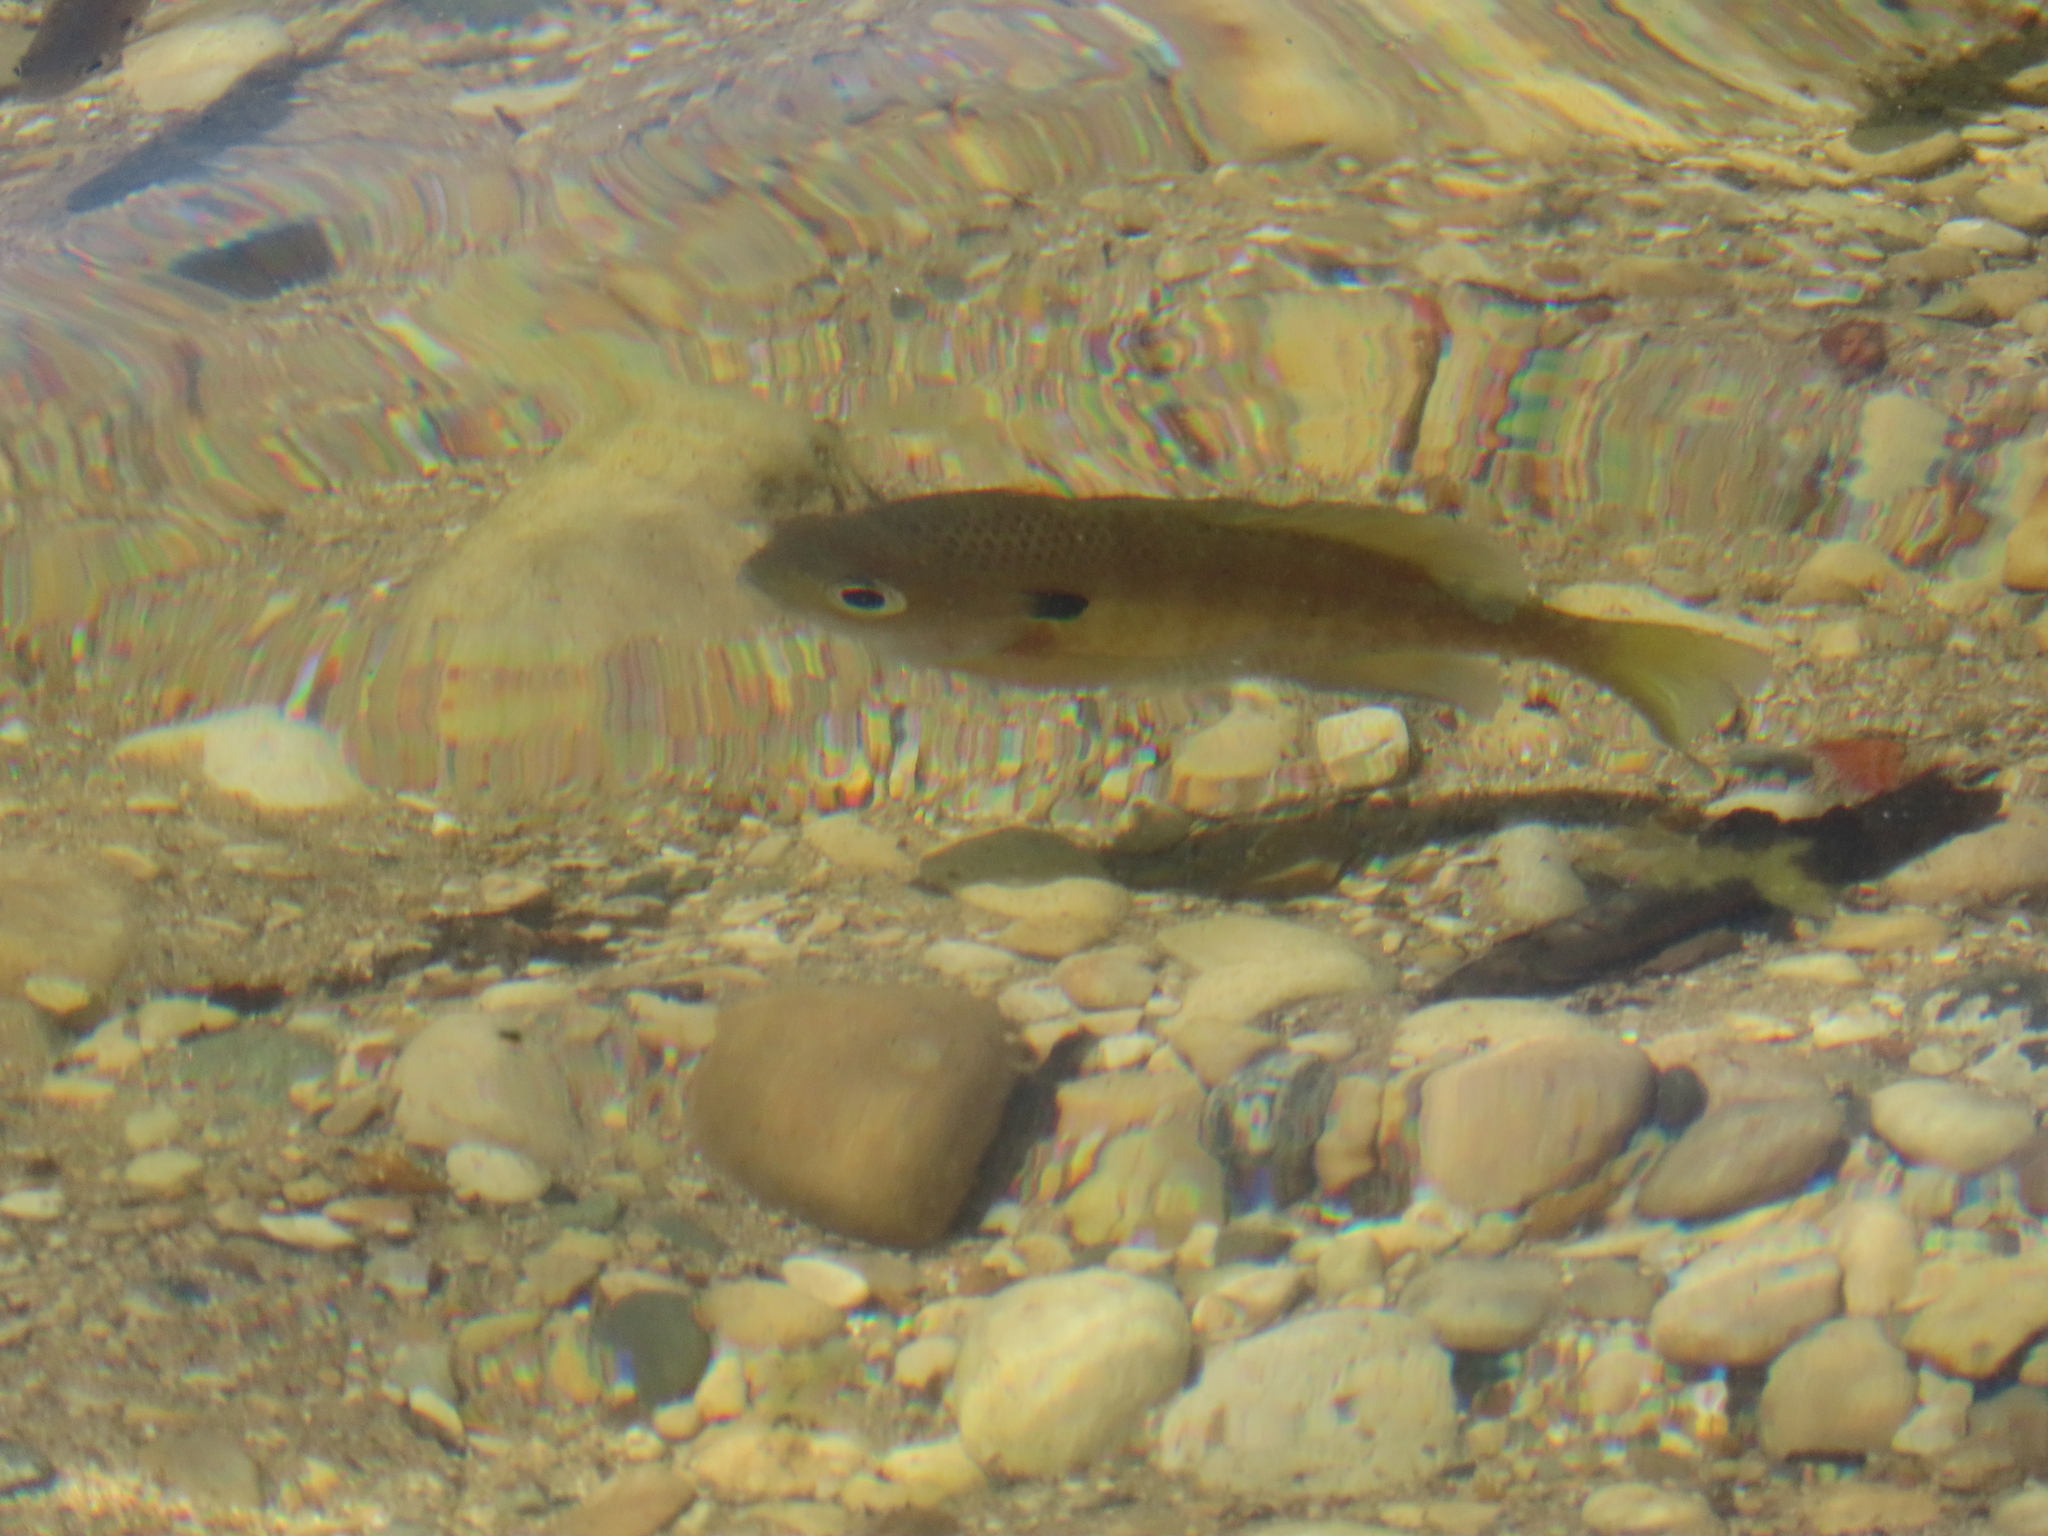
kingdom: Animalia
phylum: Chordata
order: Perciformes
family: Centrarchidae
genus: Lepomis
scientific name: Lepomis macrochirus
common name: Bluegill
